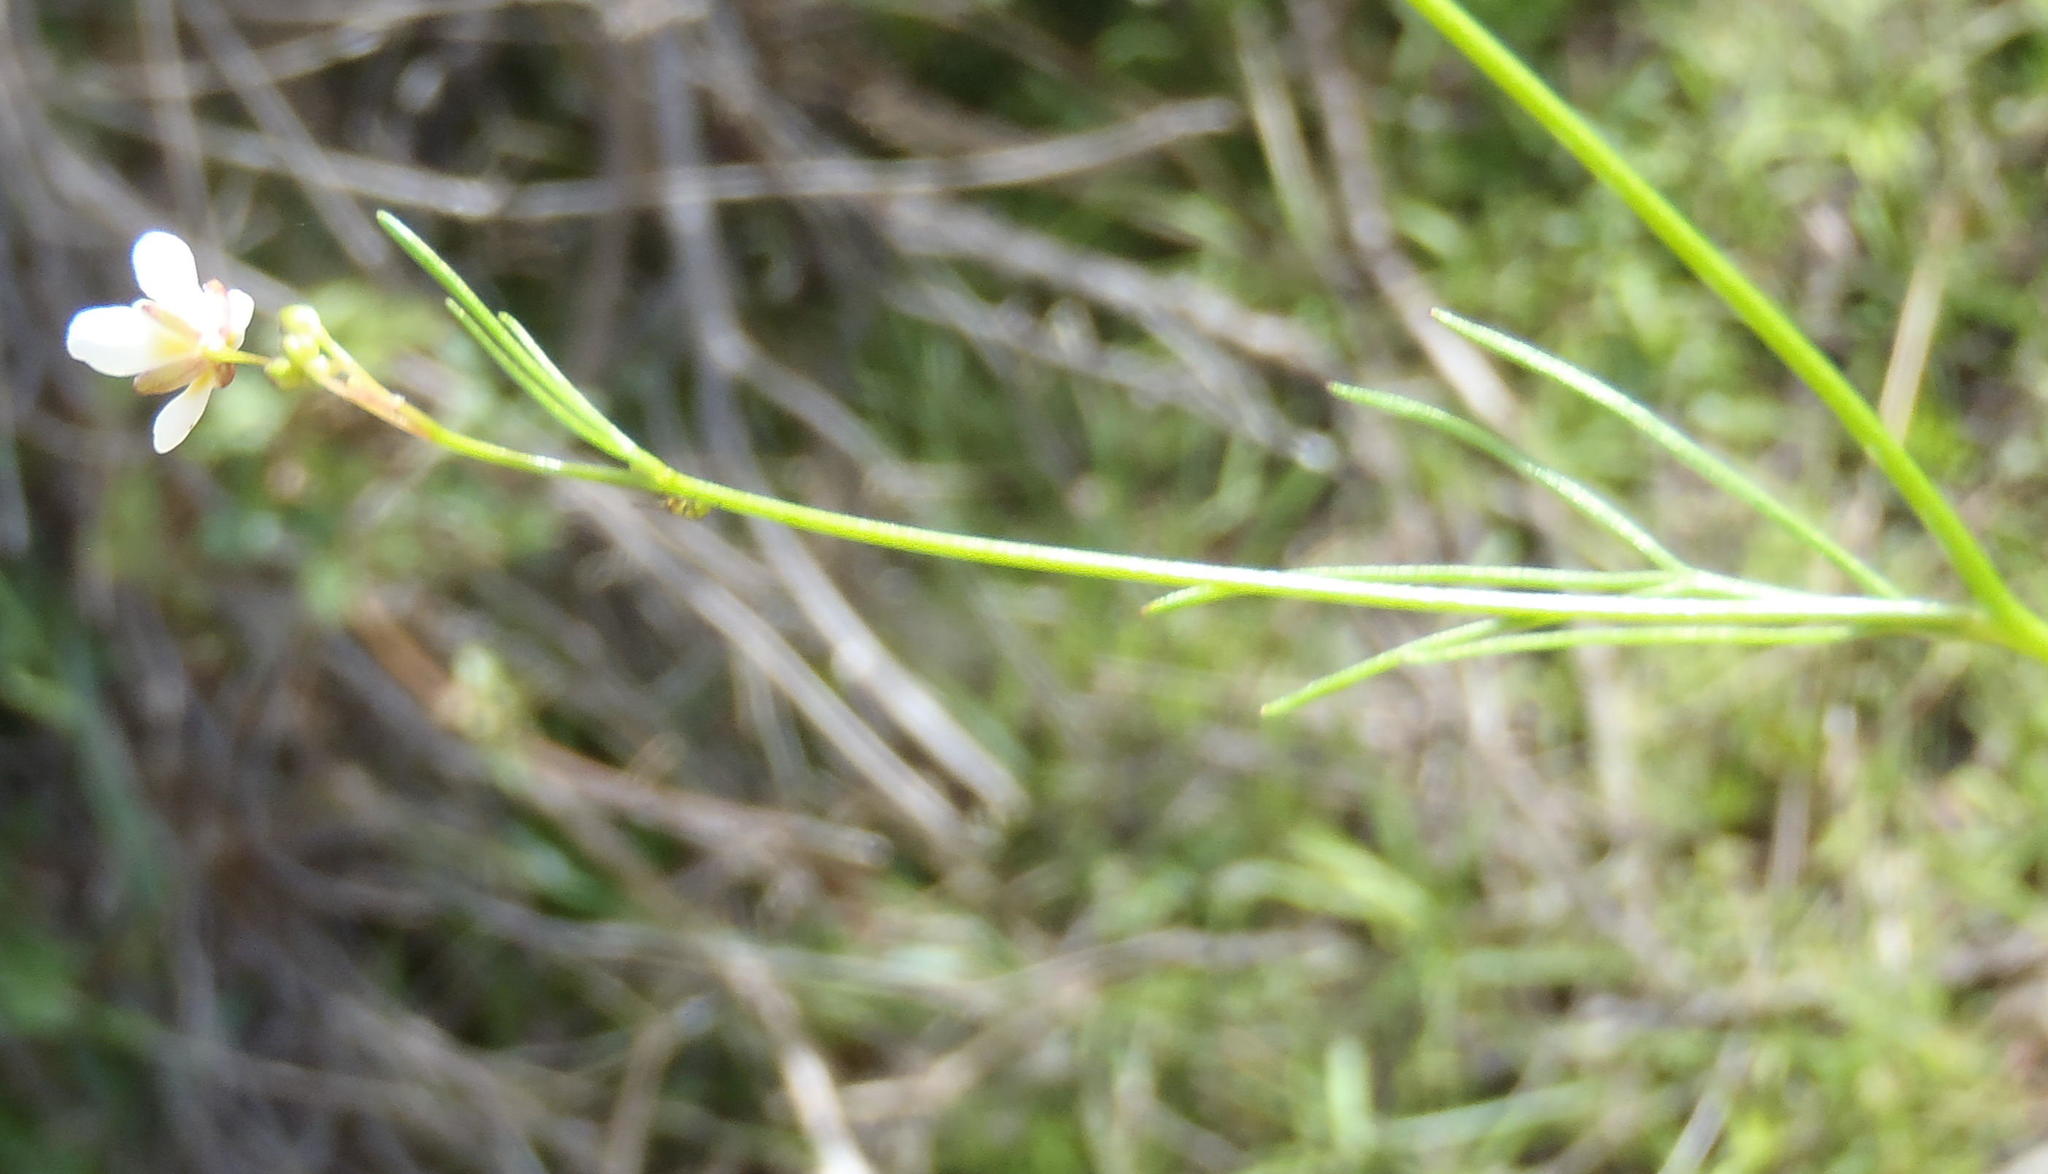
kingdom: Plantae
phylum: Tracheophyta
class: Magnoliopsida
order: Brassicales
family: Brassicaceae
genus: Heliophila
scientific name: Heliophila pendula
